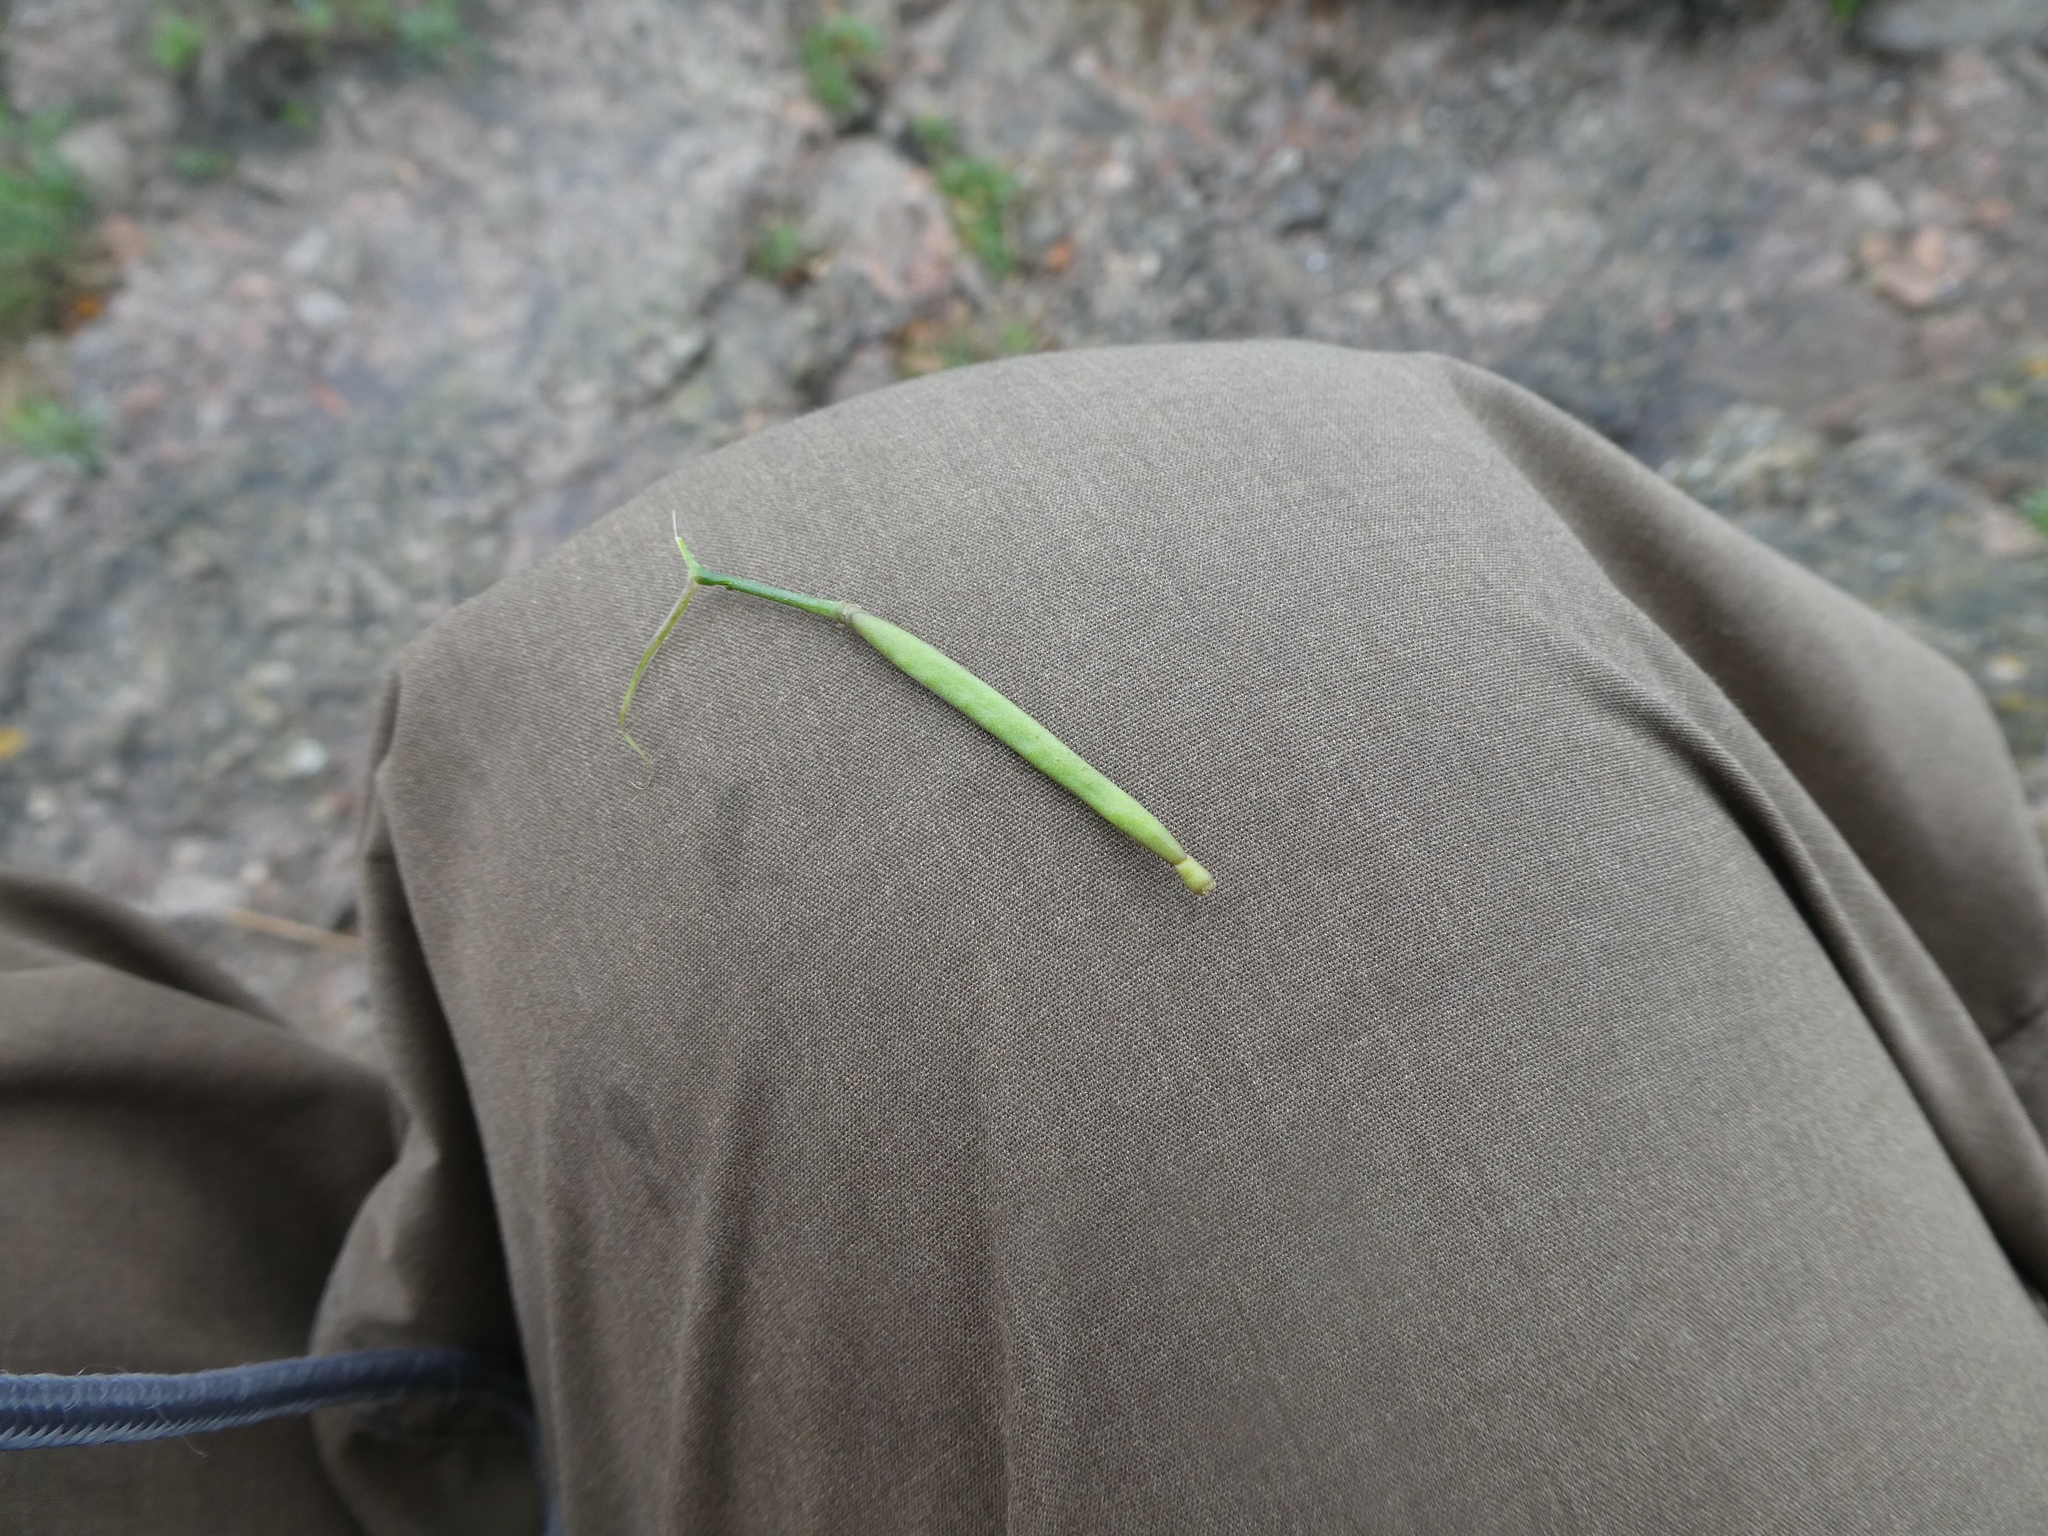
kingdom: Plantae
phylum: Tracheophyta
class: Magnoliopsida
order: Brassicales
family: Brassicaceae
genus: Diplotaxis
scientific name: Diplotaxis muralis
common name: Annual wall-rocket
